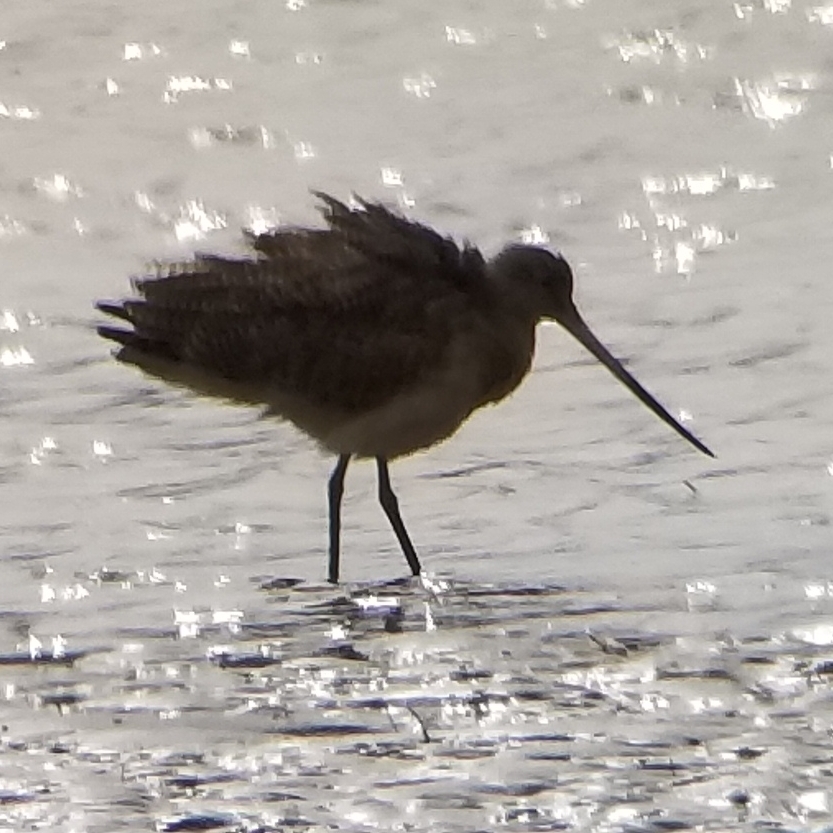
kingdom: Animalia
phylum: Chordata
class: Aves
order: Charadriiformes
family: Scolopacidae
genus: Limosa
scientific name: Limosa fedoa
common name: Marbled godwit
